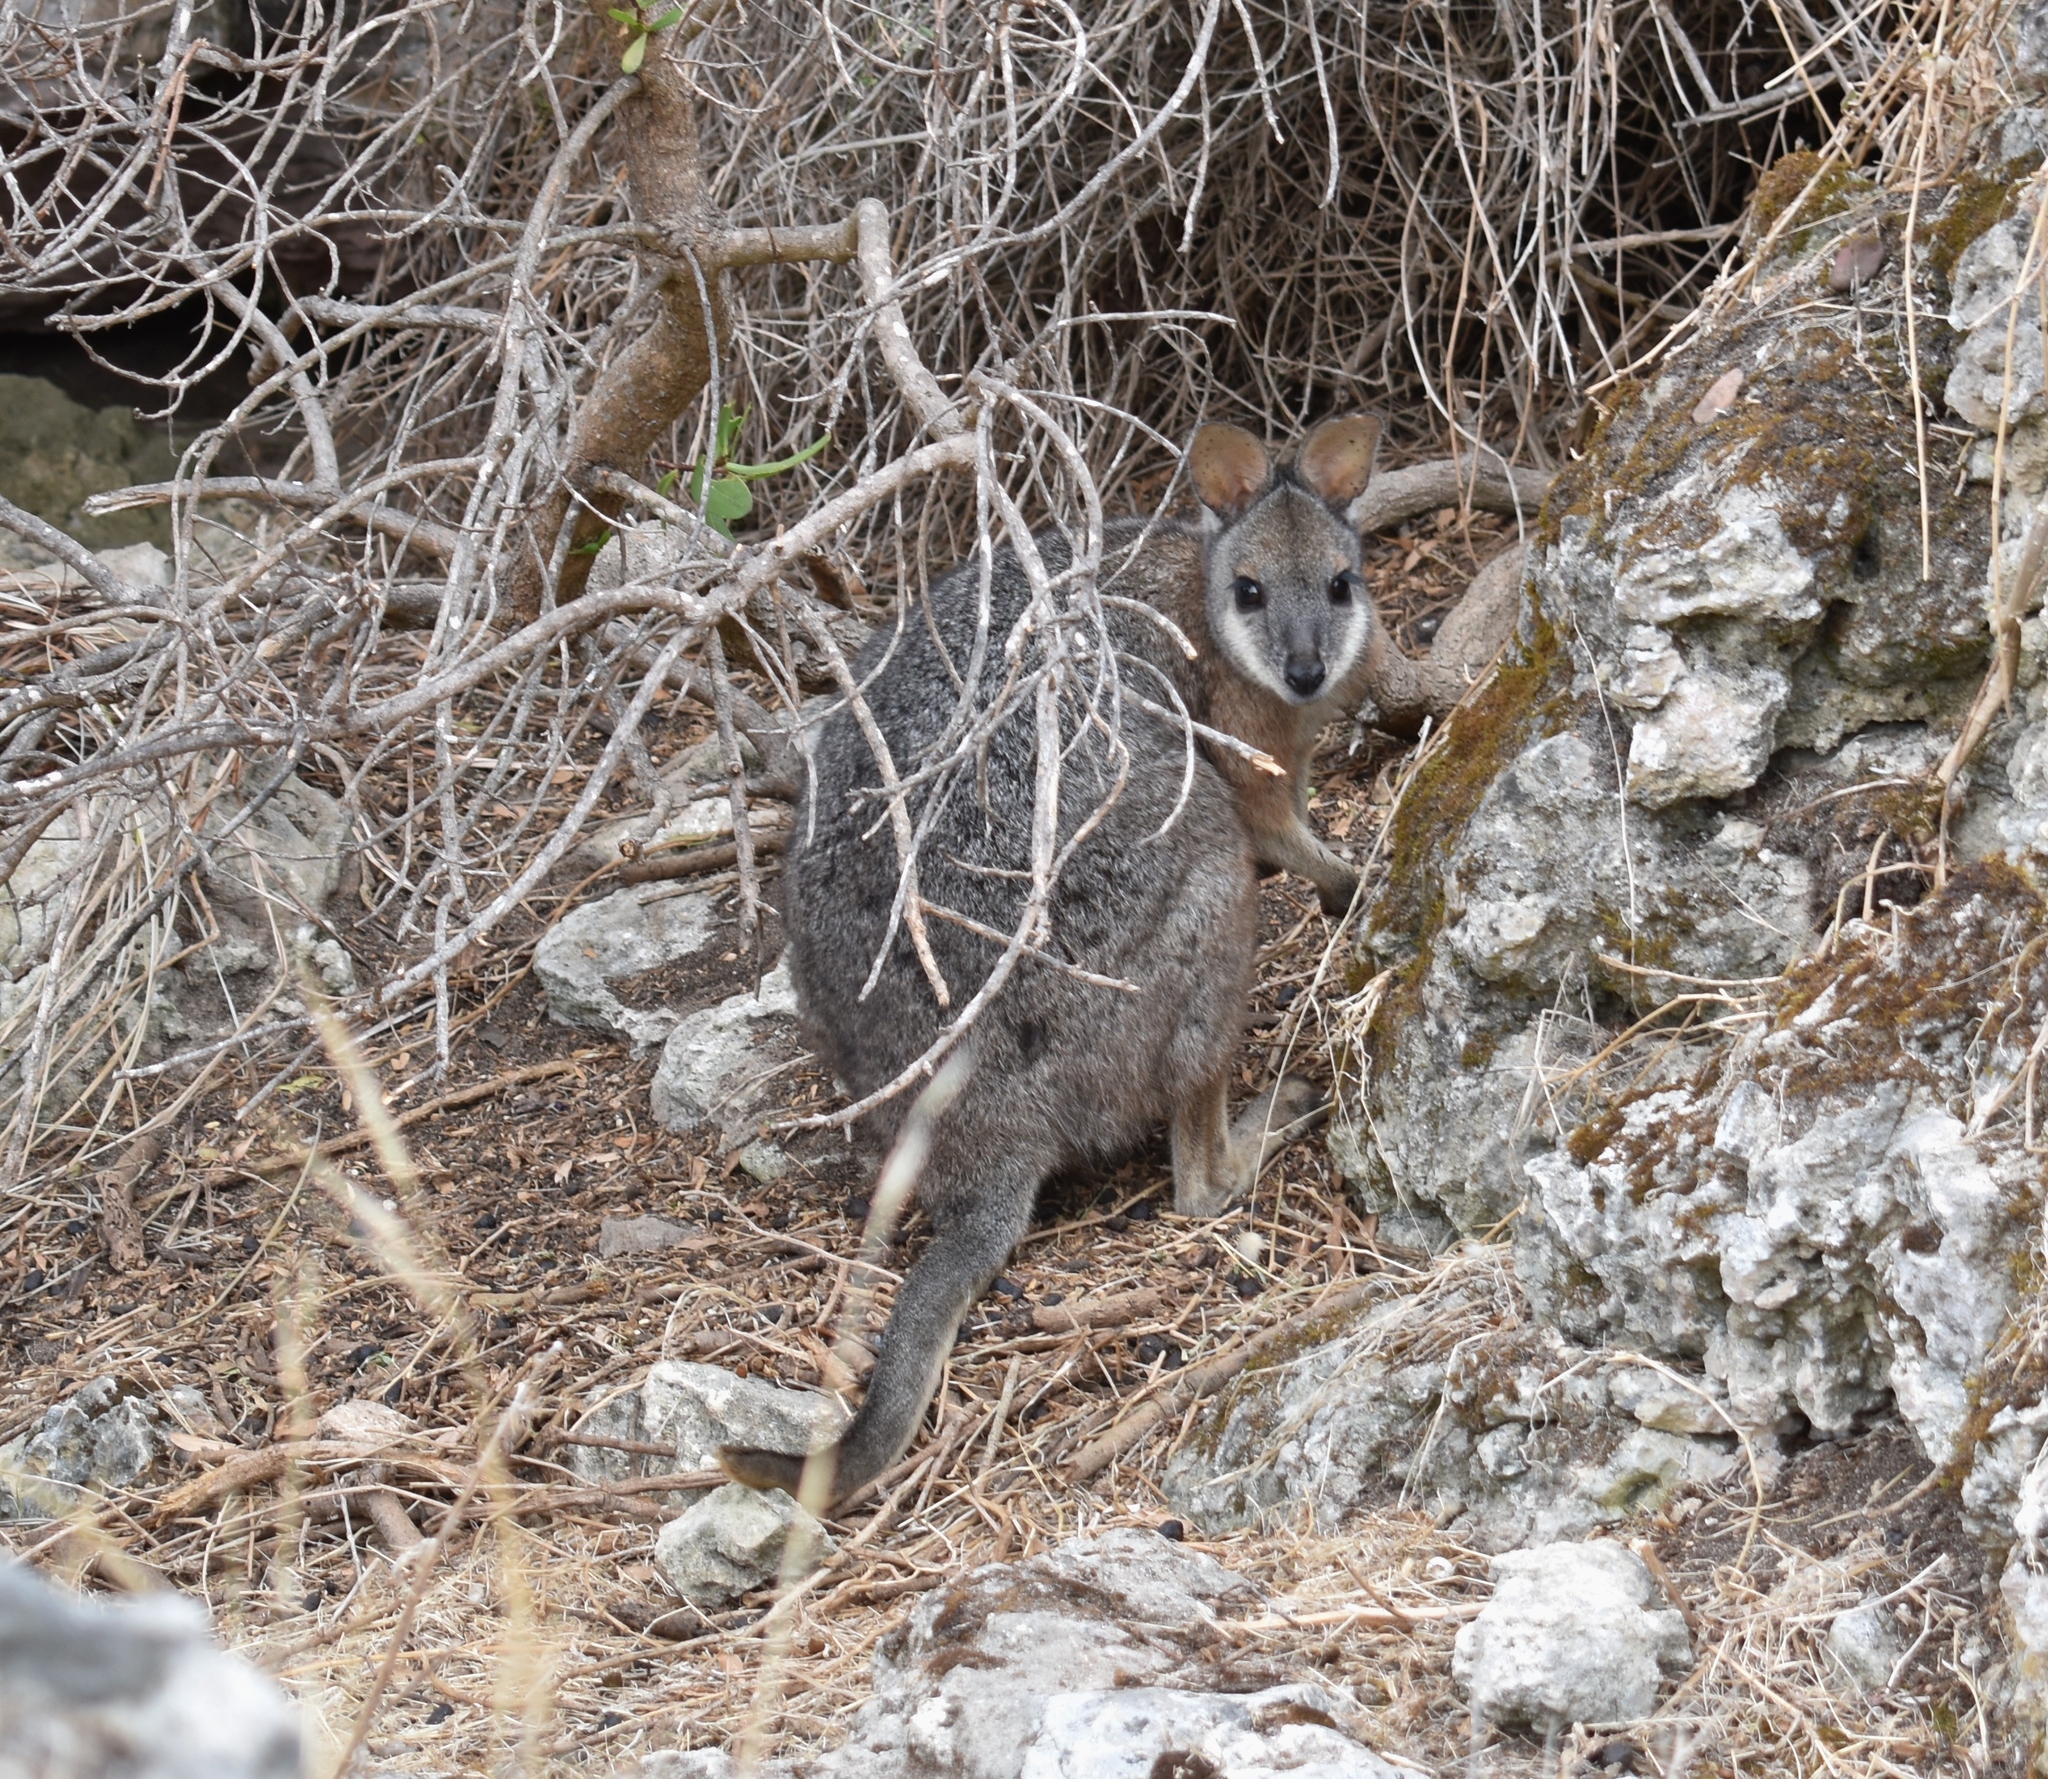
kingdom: Animalia
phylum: Chordata
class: Mammalia
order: Diprotodontia
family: Macropodidae
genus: Macropus
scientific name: Macropus eugenii
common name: Tammar wallaby
